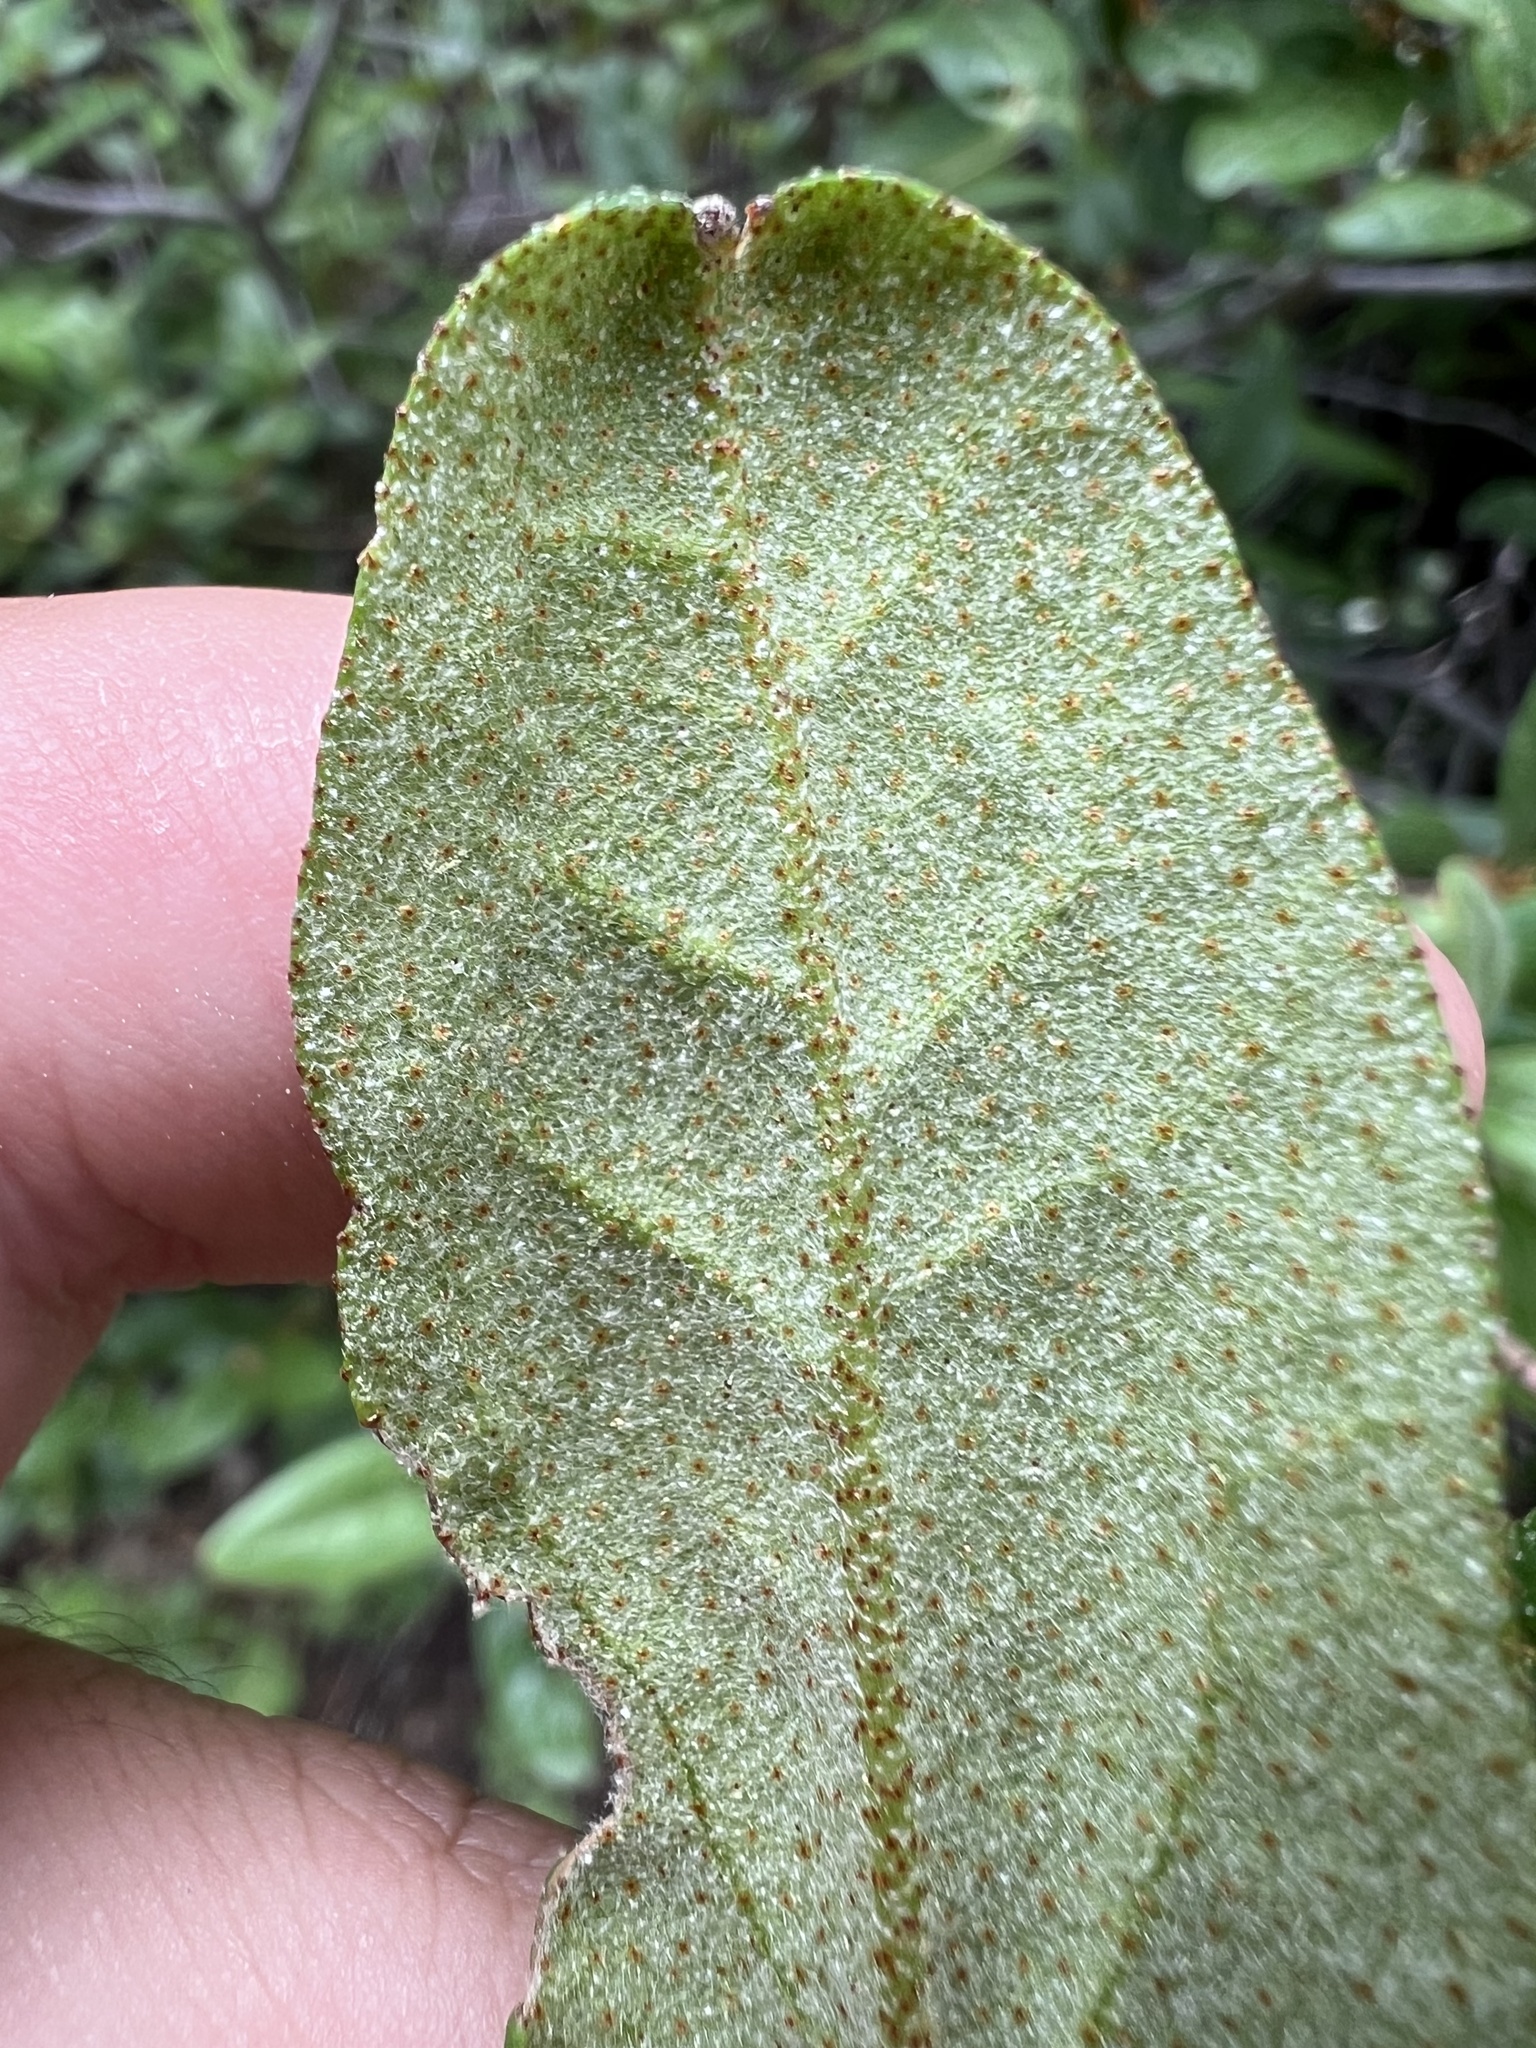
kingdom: Plantae
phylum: Tracheophyta
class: Magnoliopsida
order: Rosales
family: Elaeagnaceae
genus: Shepherdia
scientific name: Shepherdia canadensis
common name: Soapberry
